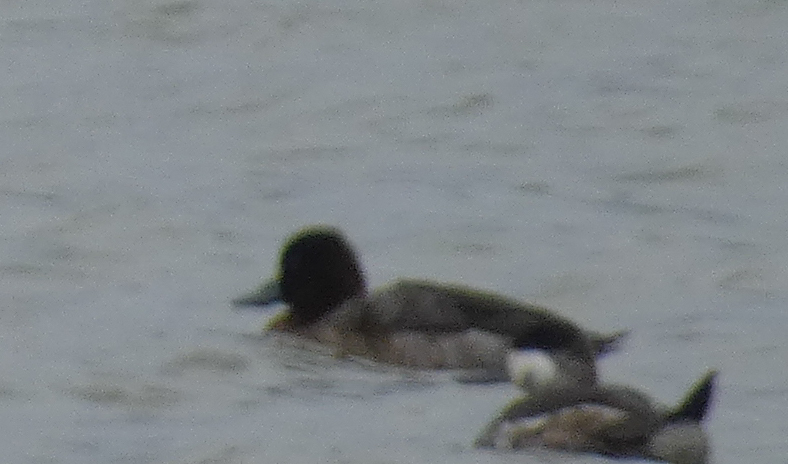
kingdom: Animalia
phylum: Chordata
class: Aves
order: Anseriformes
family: Anatidae
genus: Aythya
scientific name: Aythya affinis
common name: Lesser scaup
